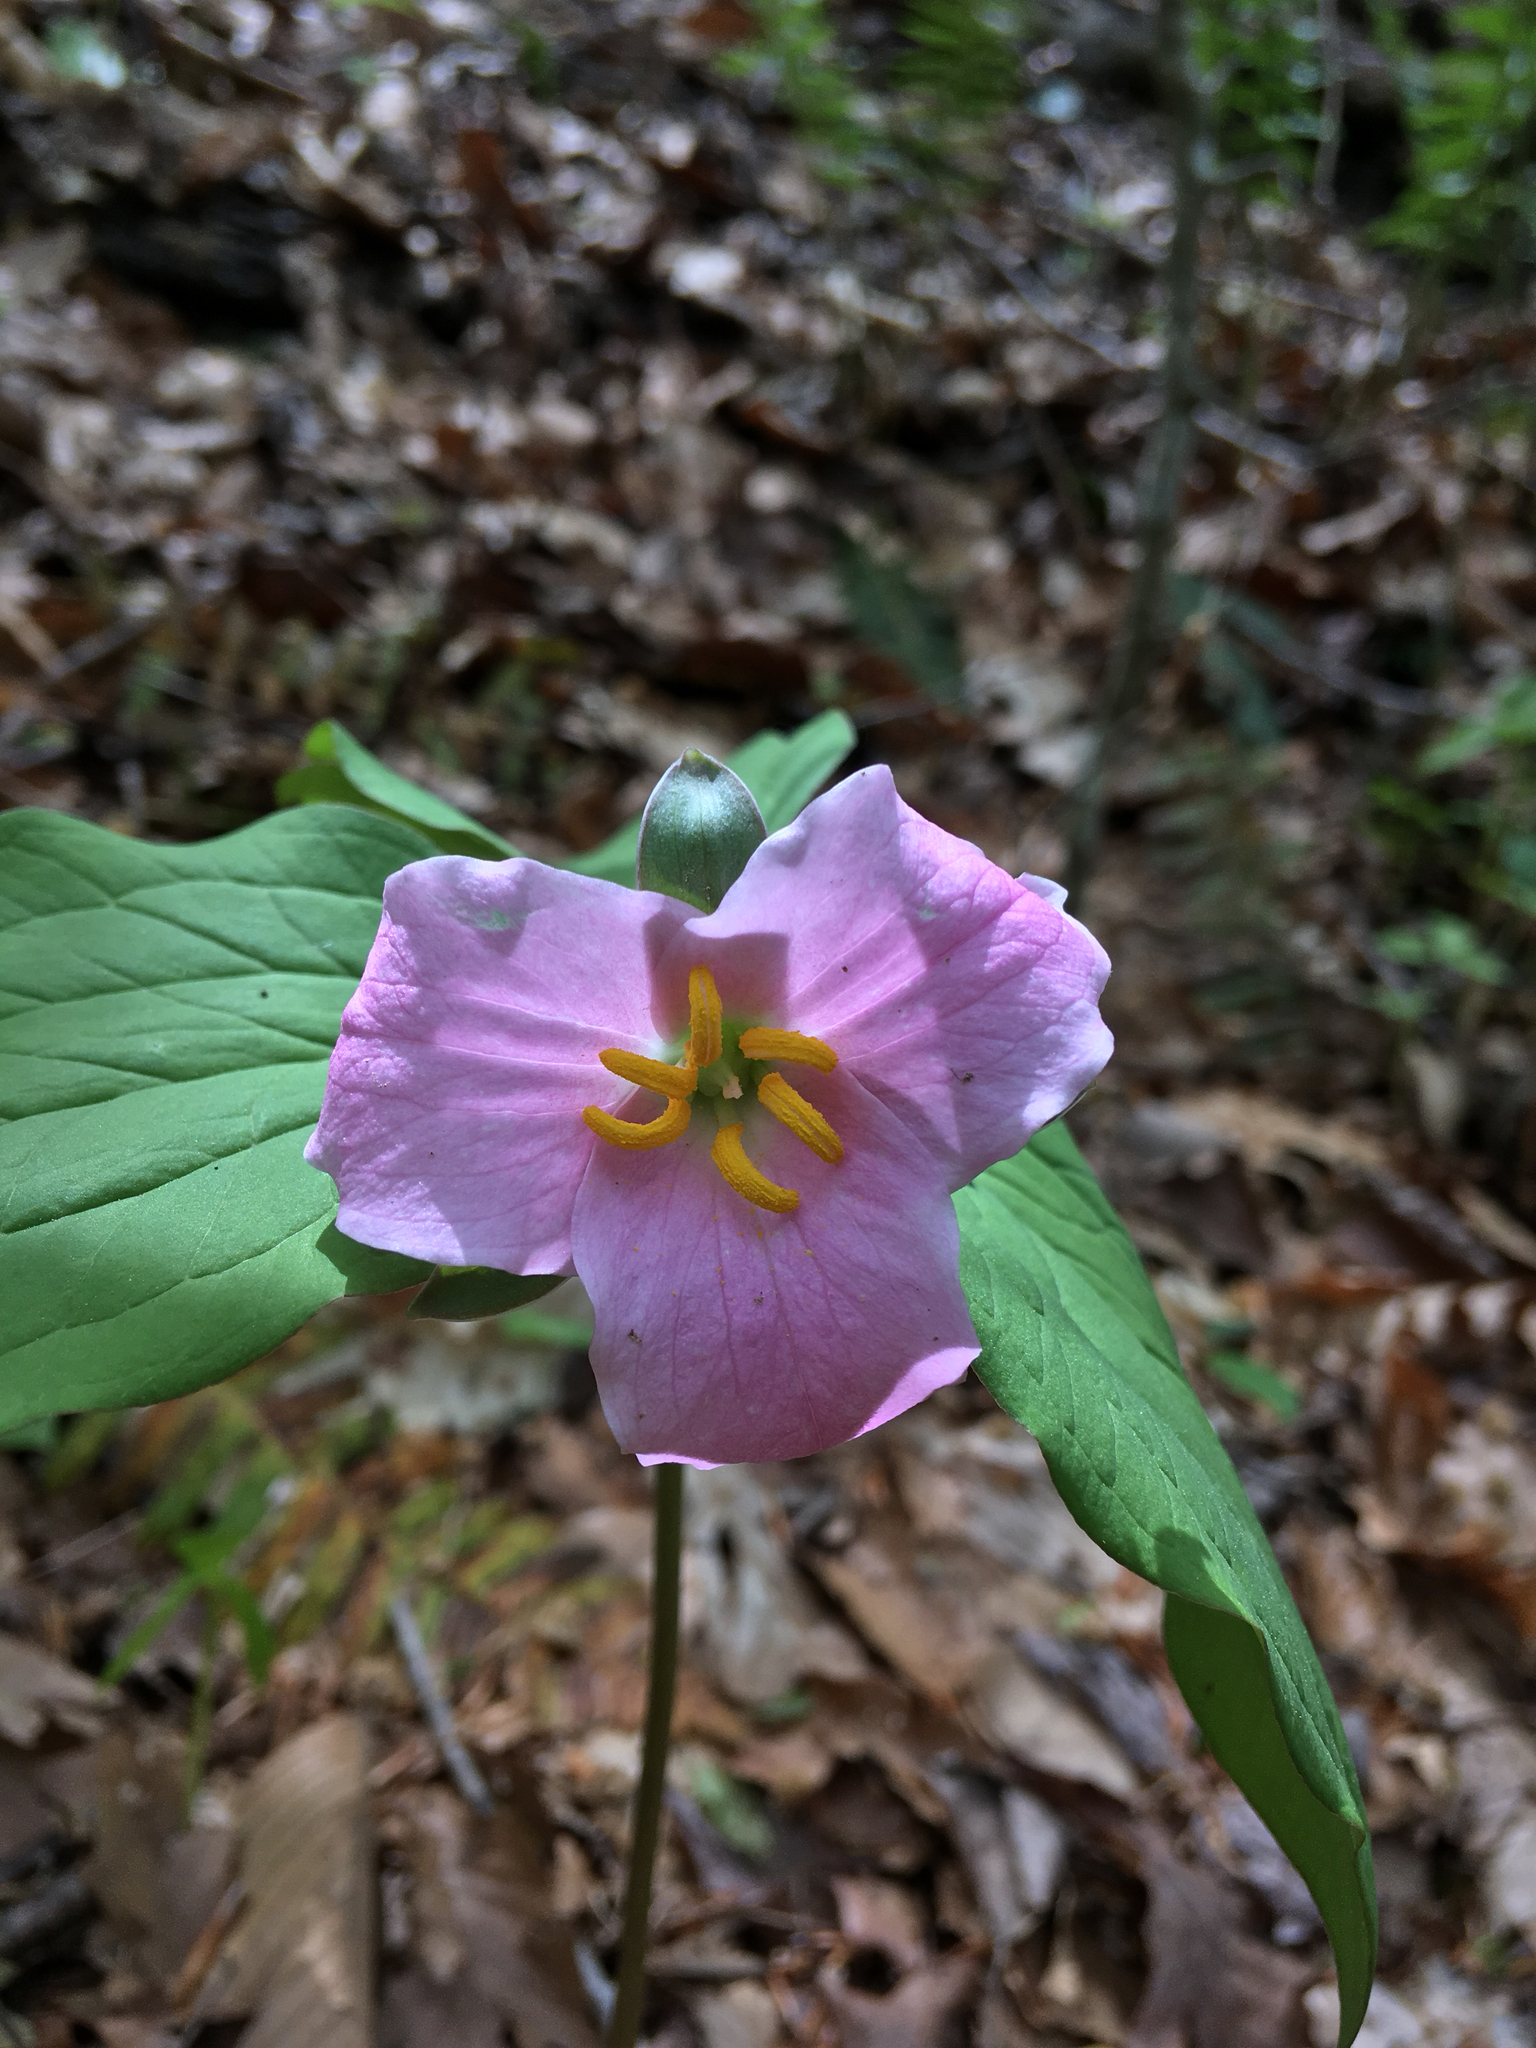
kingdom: Plantae
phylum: Tracheophyta
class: Liliopsida
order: Liliales
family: Melanthiaceae
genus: Trillium
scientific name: Trillium catesbaei
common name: Bashful trillium
